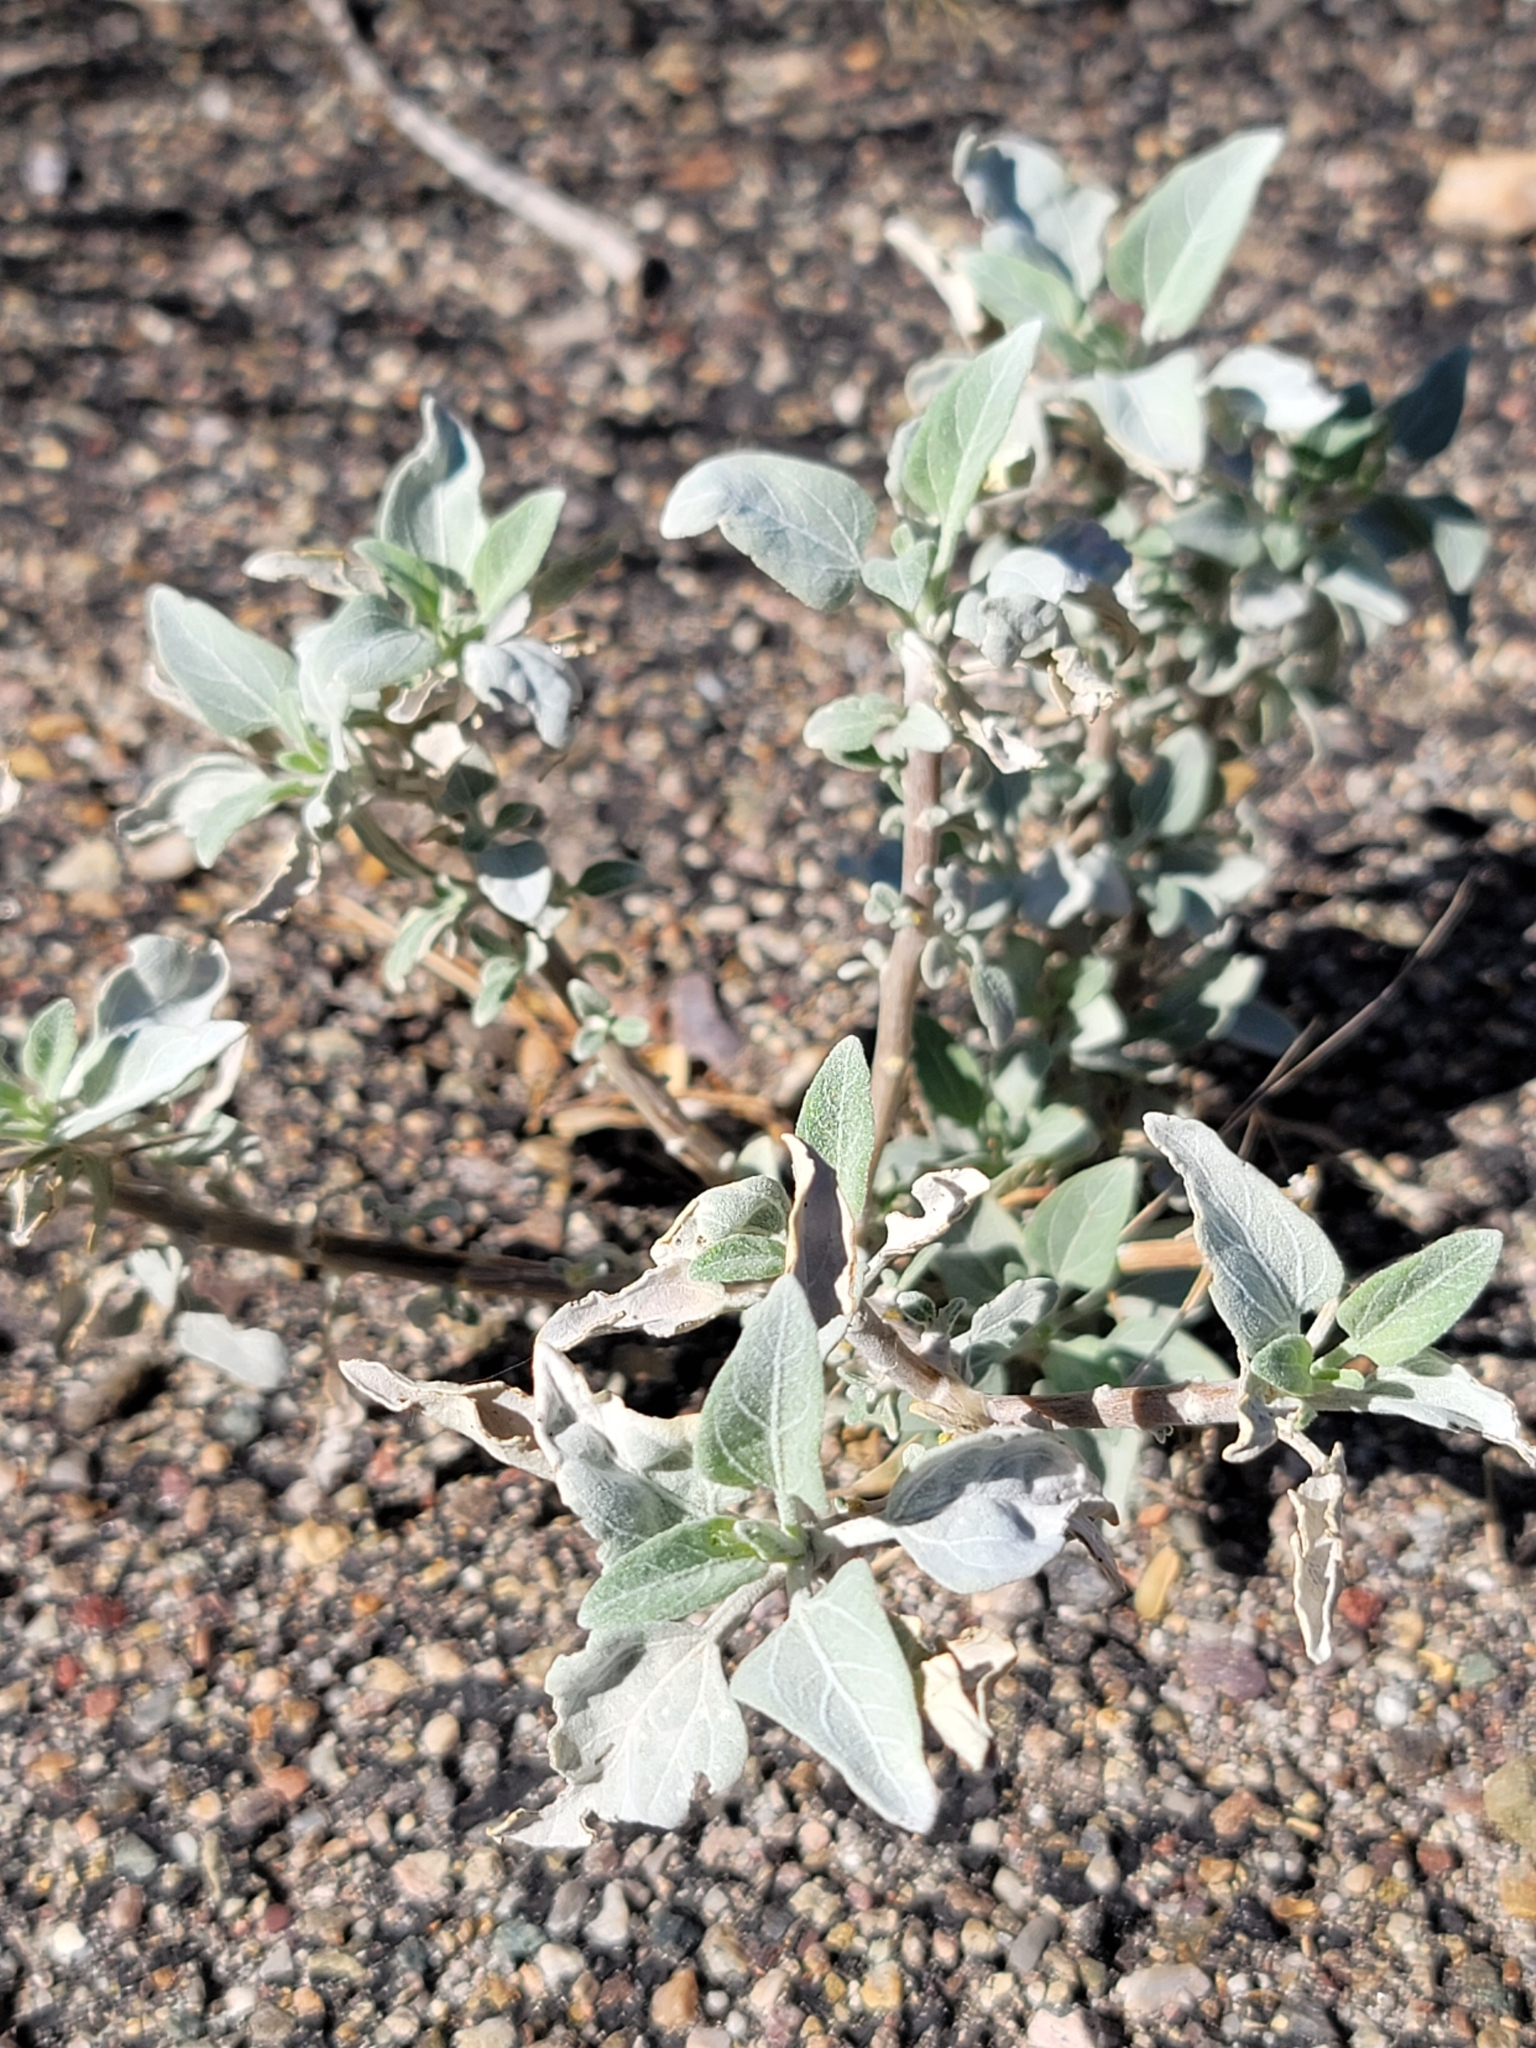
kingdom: Plantae
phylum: Tracheophyta
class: Magnoliopsida
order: Asterales
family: Asteraceae
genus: Encelia
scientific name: Encelia farinosa
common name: Brittlebush
